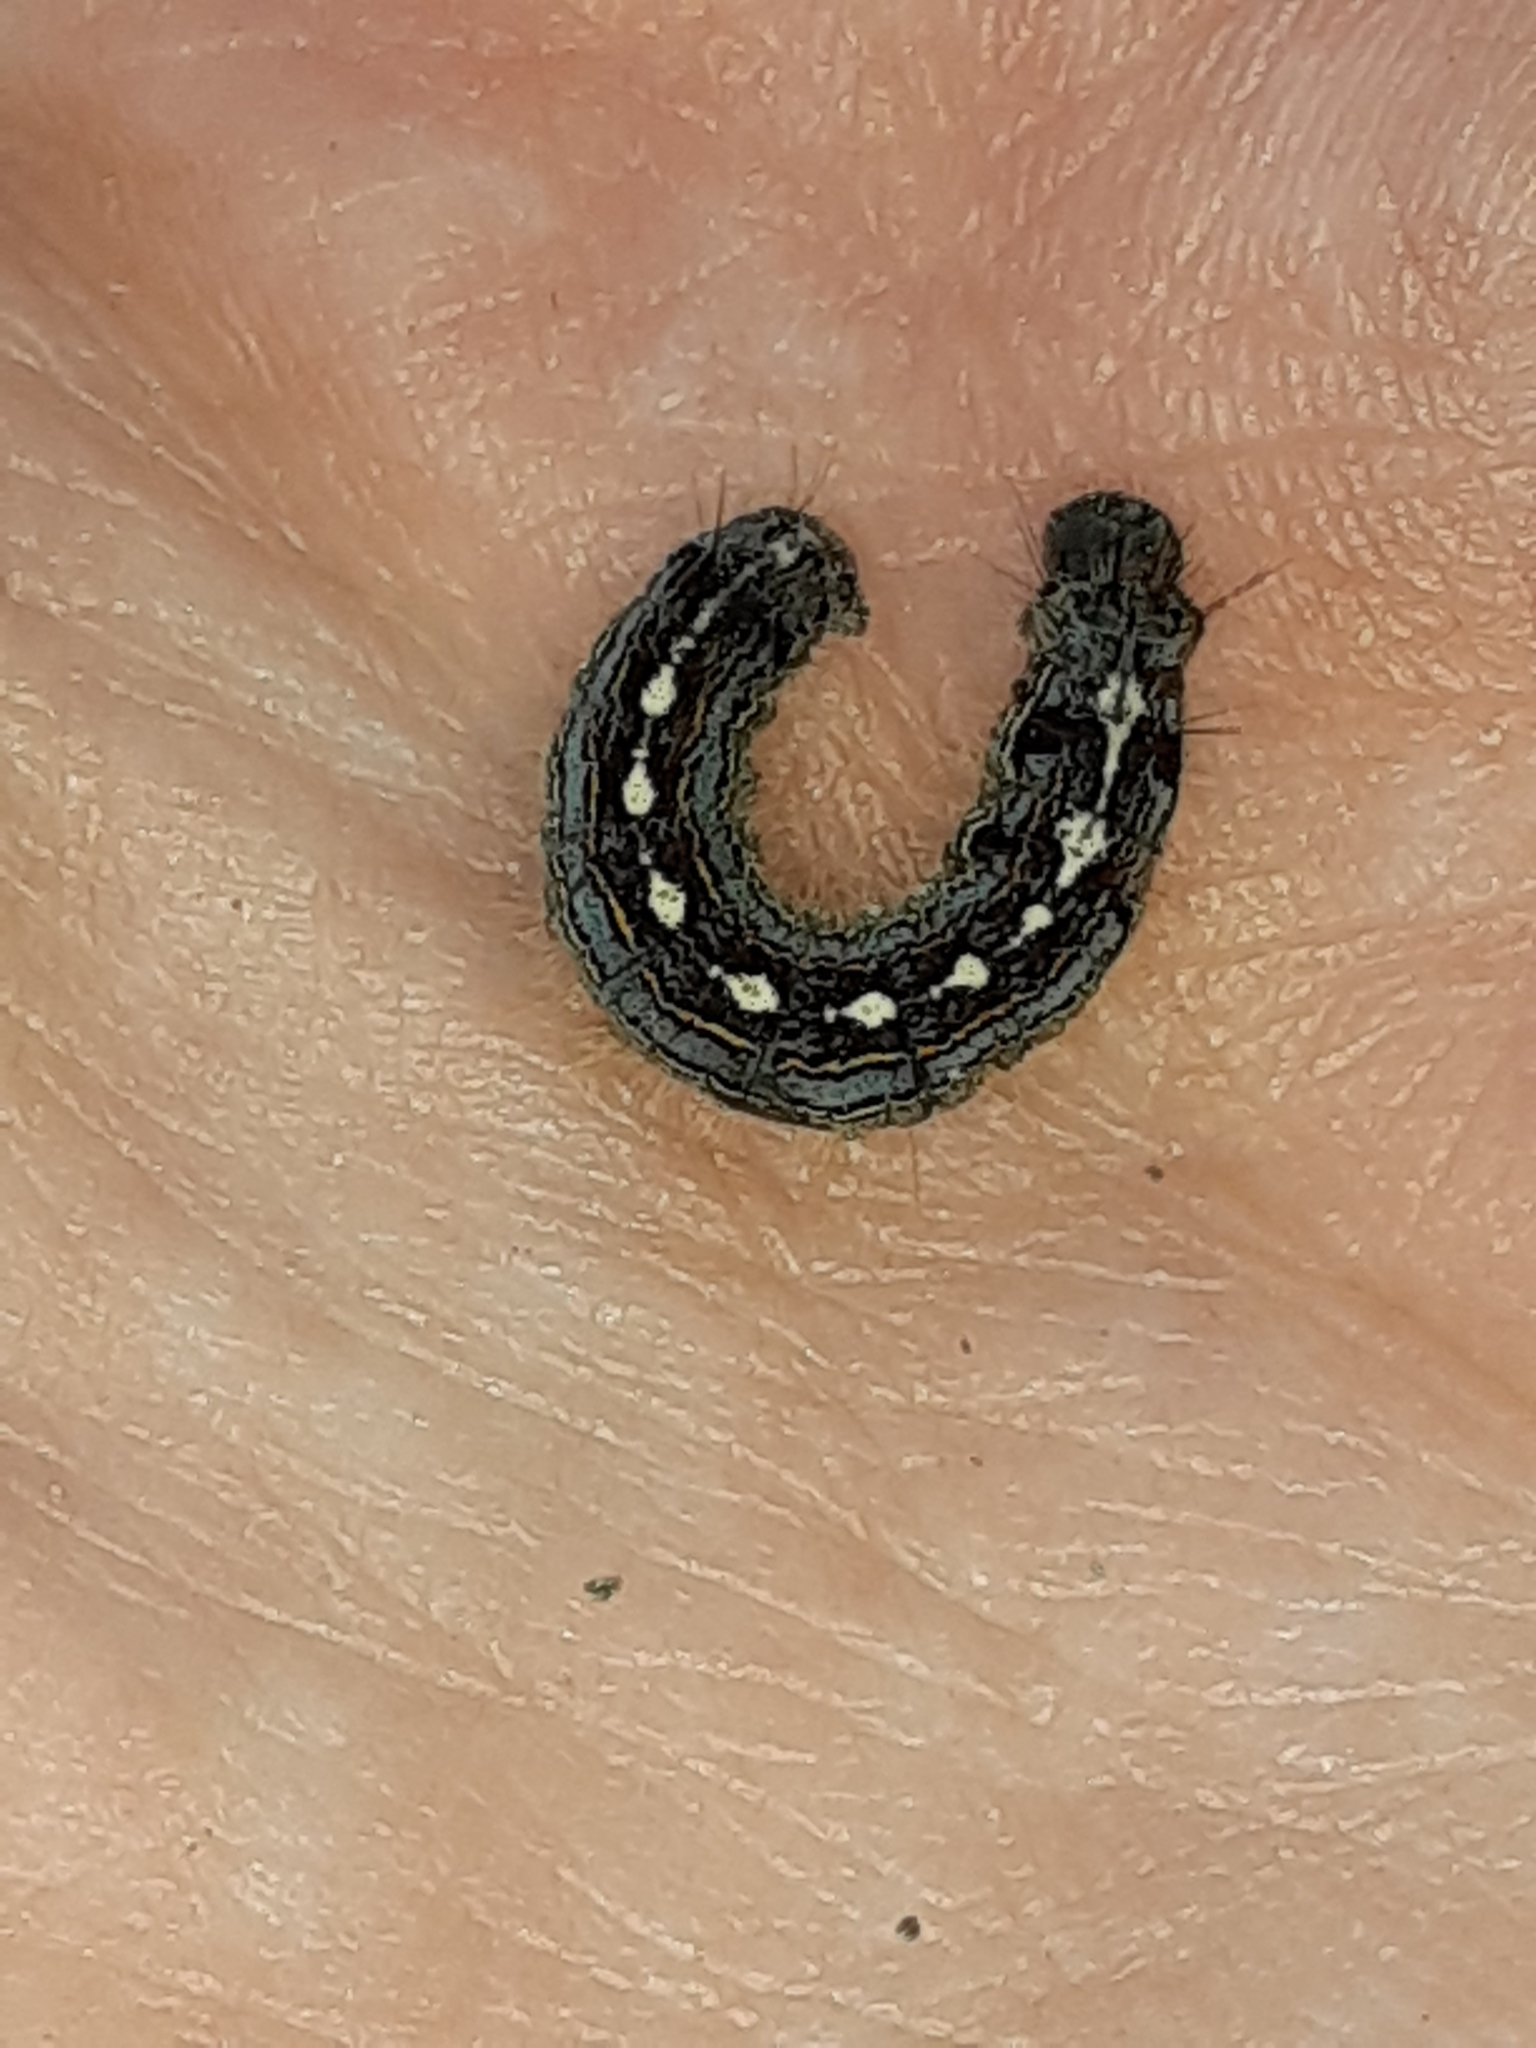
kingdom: Animalia
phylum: Arthropoda
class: Insecta
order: Lepidoptera
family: Lasiocampidae
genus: Malacosoma
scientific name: Malacosoma disstria
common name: Forest tent caterpillar
